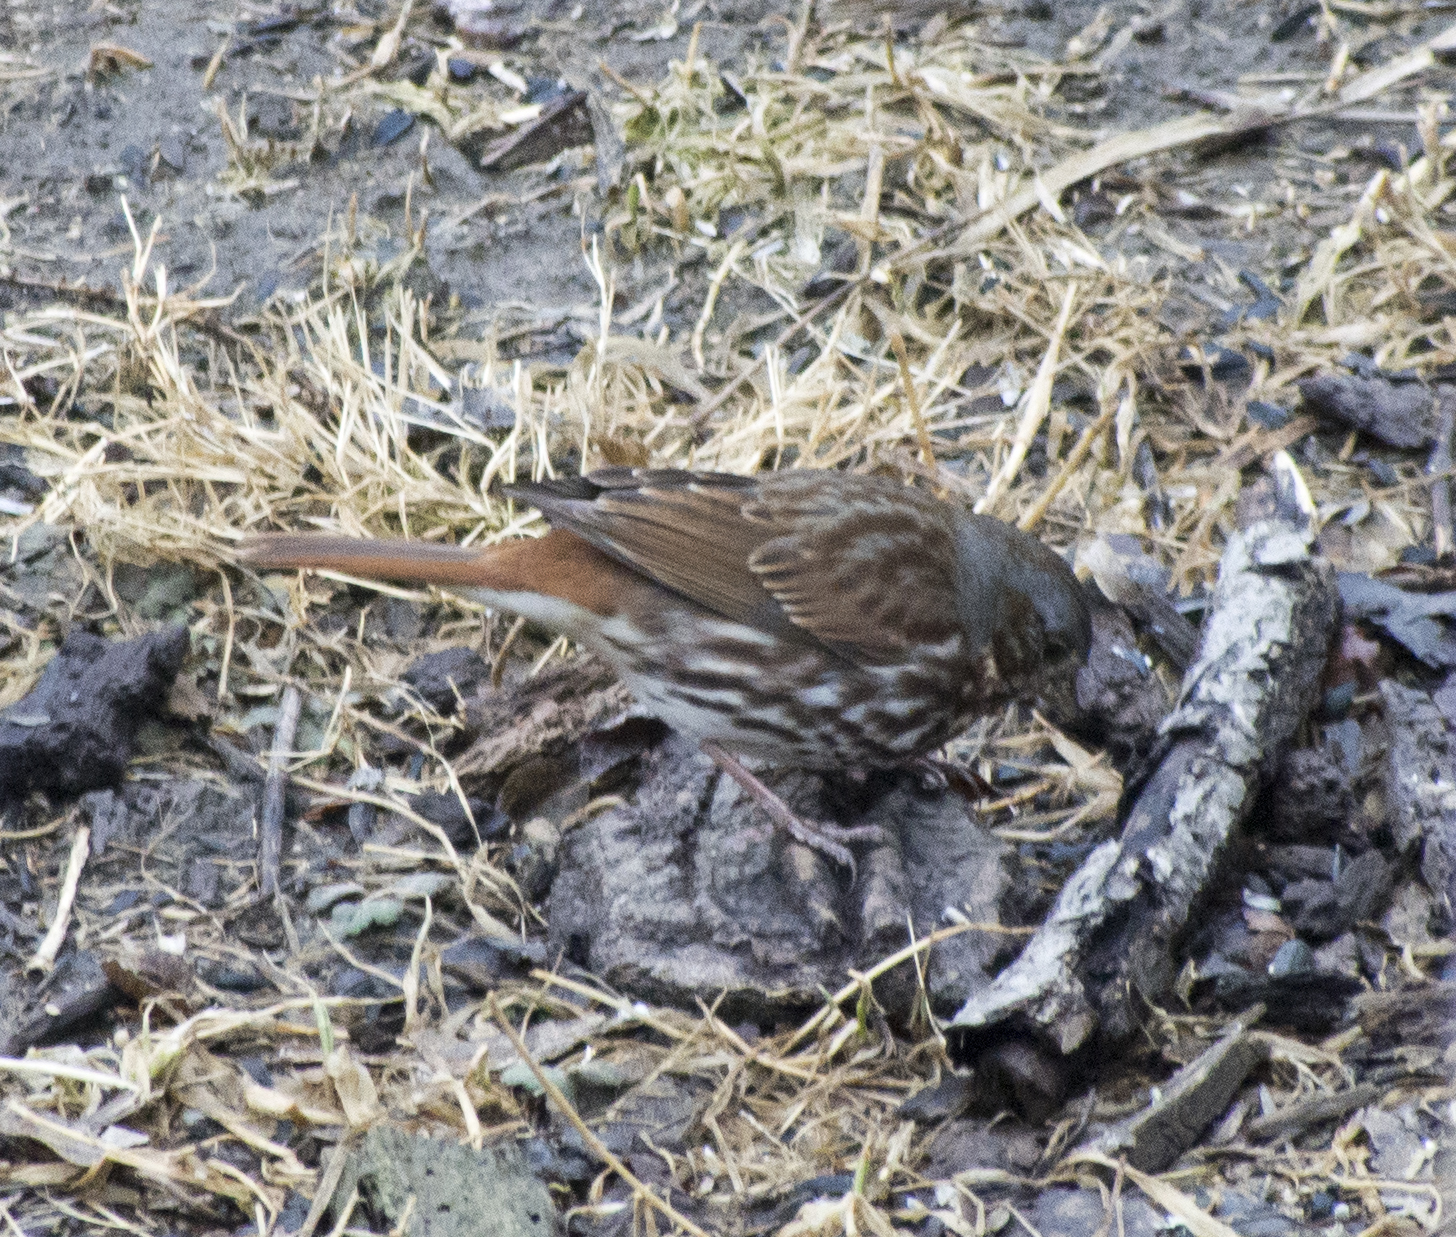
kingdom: Animalia
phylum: Chordata
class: Aves
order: Passeriformes
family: Passerellidae
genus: Passerella
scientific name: Passerella iliaca
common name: Fox sparrow
